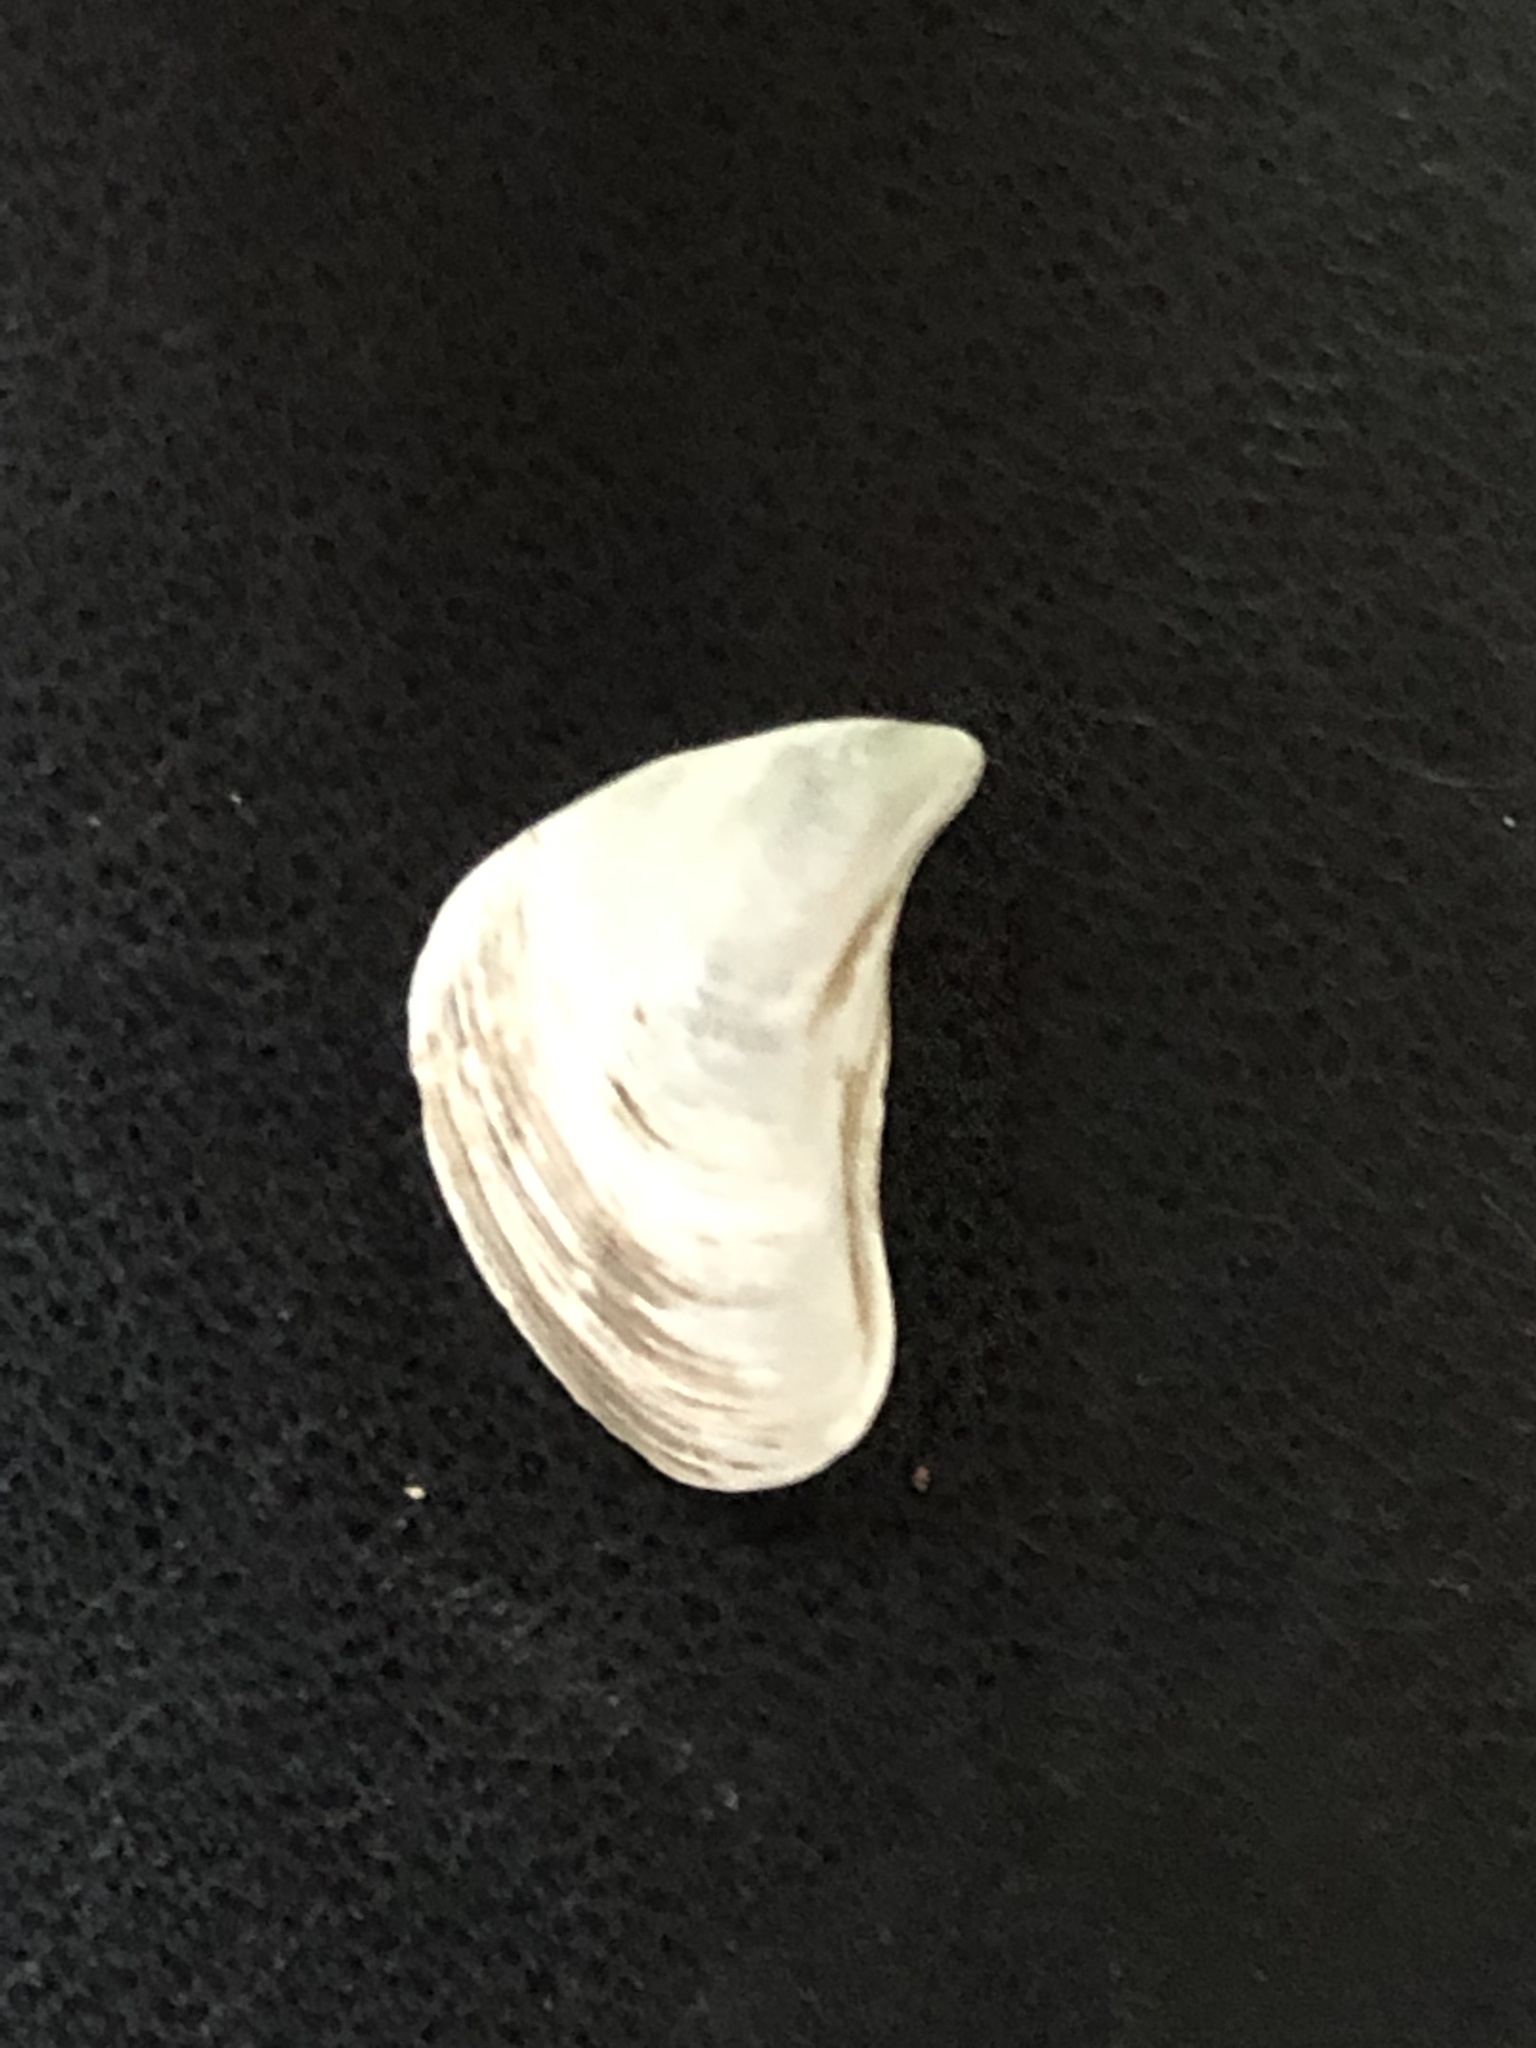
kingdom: Animalia
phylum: Mollusca
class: Bivalvia
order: Myida
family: Dreissenidae
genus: Dreissena
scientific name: Dreissena bugensis
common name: Quagga mussel
